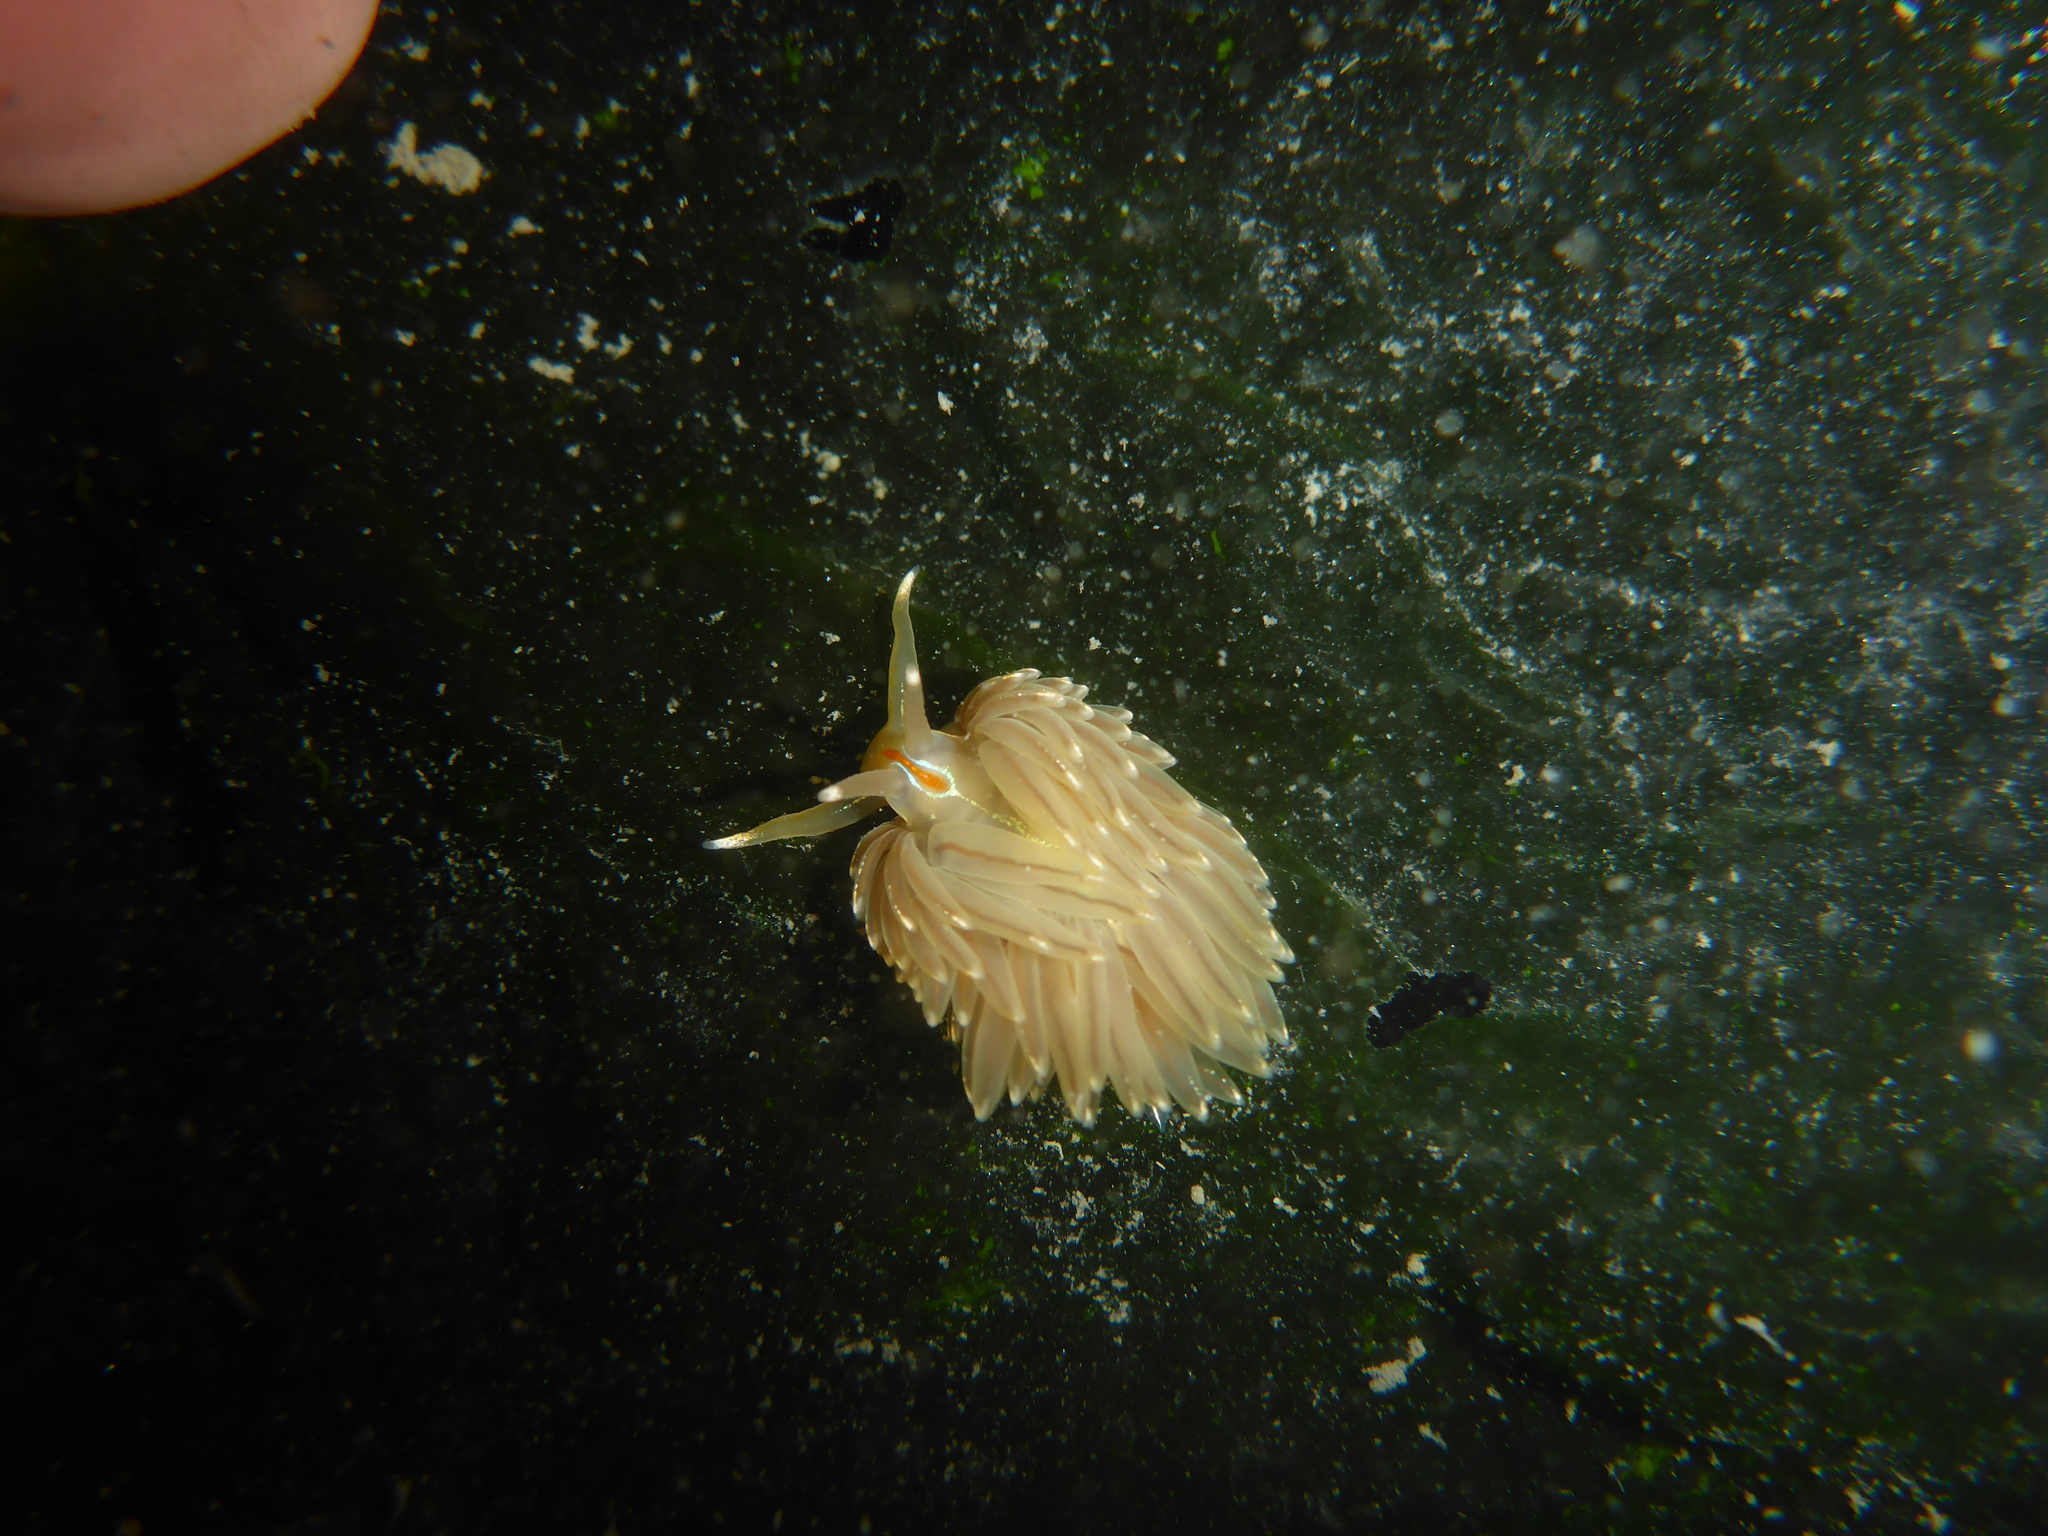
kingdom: Animalia
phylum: Mollusca
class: Gastropoda
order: Nudibranchia
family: Myrrhinidae
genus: Hermissenda
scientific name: Hermissenda crassicornis
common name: Hermissenda
